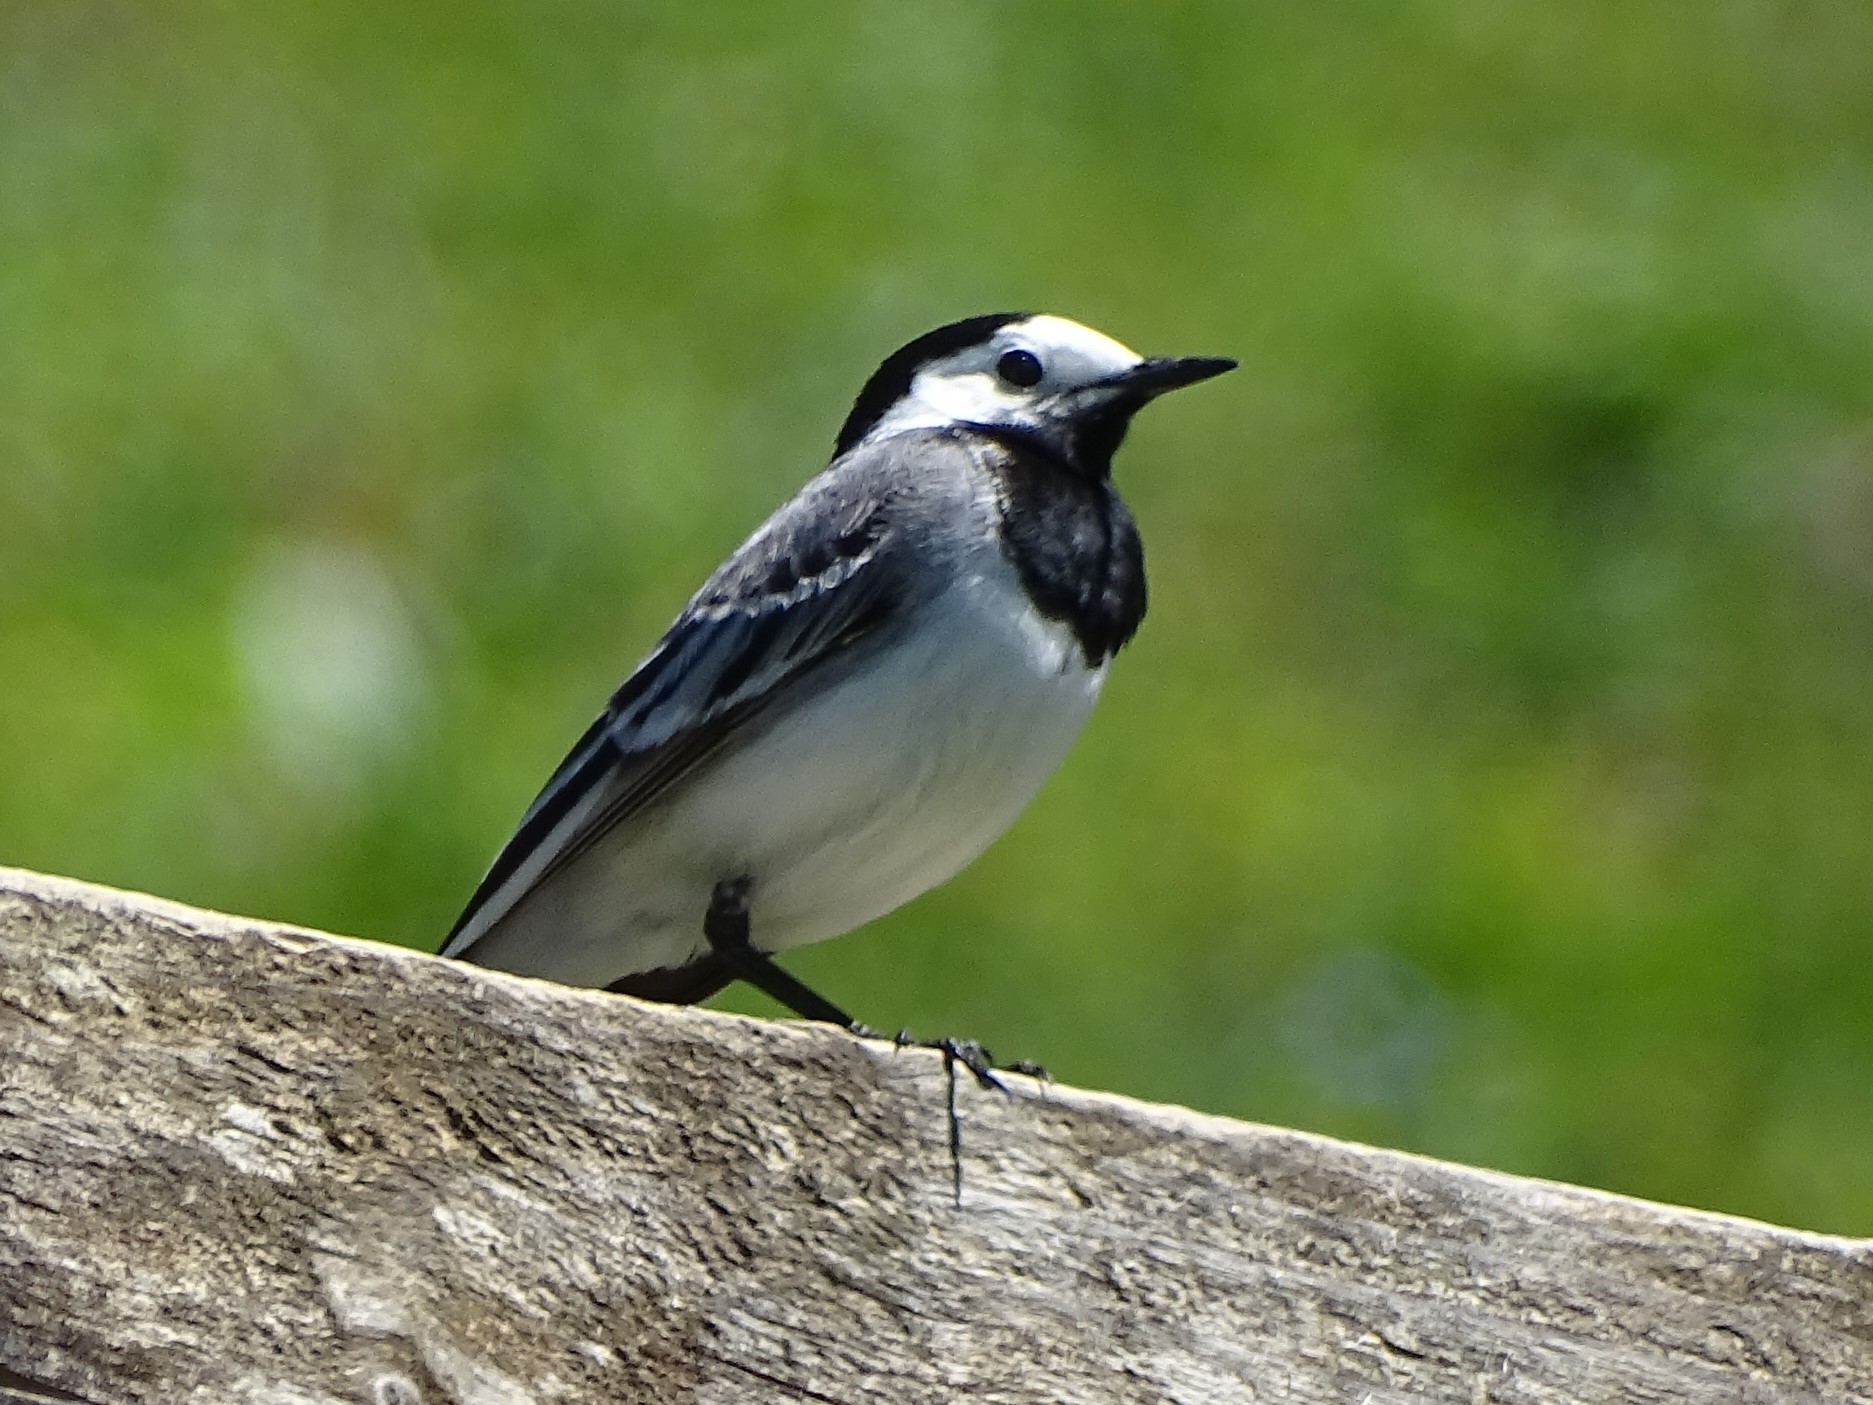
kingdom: Animalia
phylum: Chordata
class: Aves
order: Passeriformes
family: Motacillidae
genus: Motacilla
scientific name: Motacilla alba
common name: White wagtail
